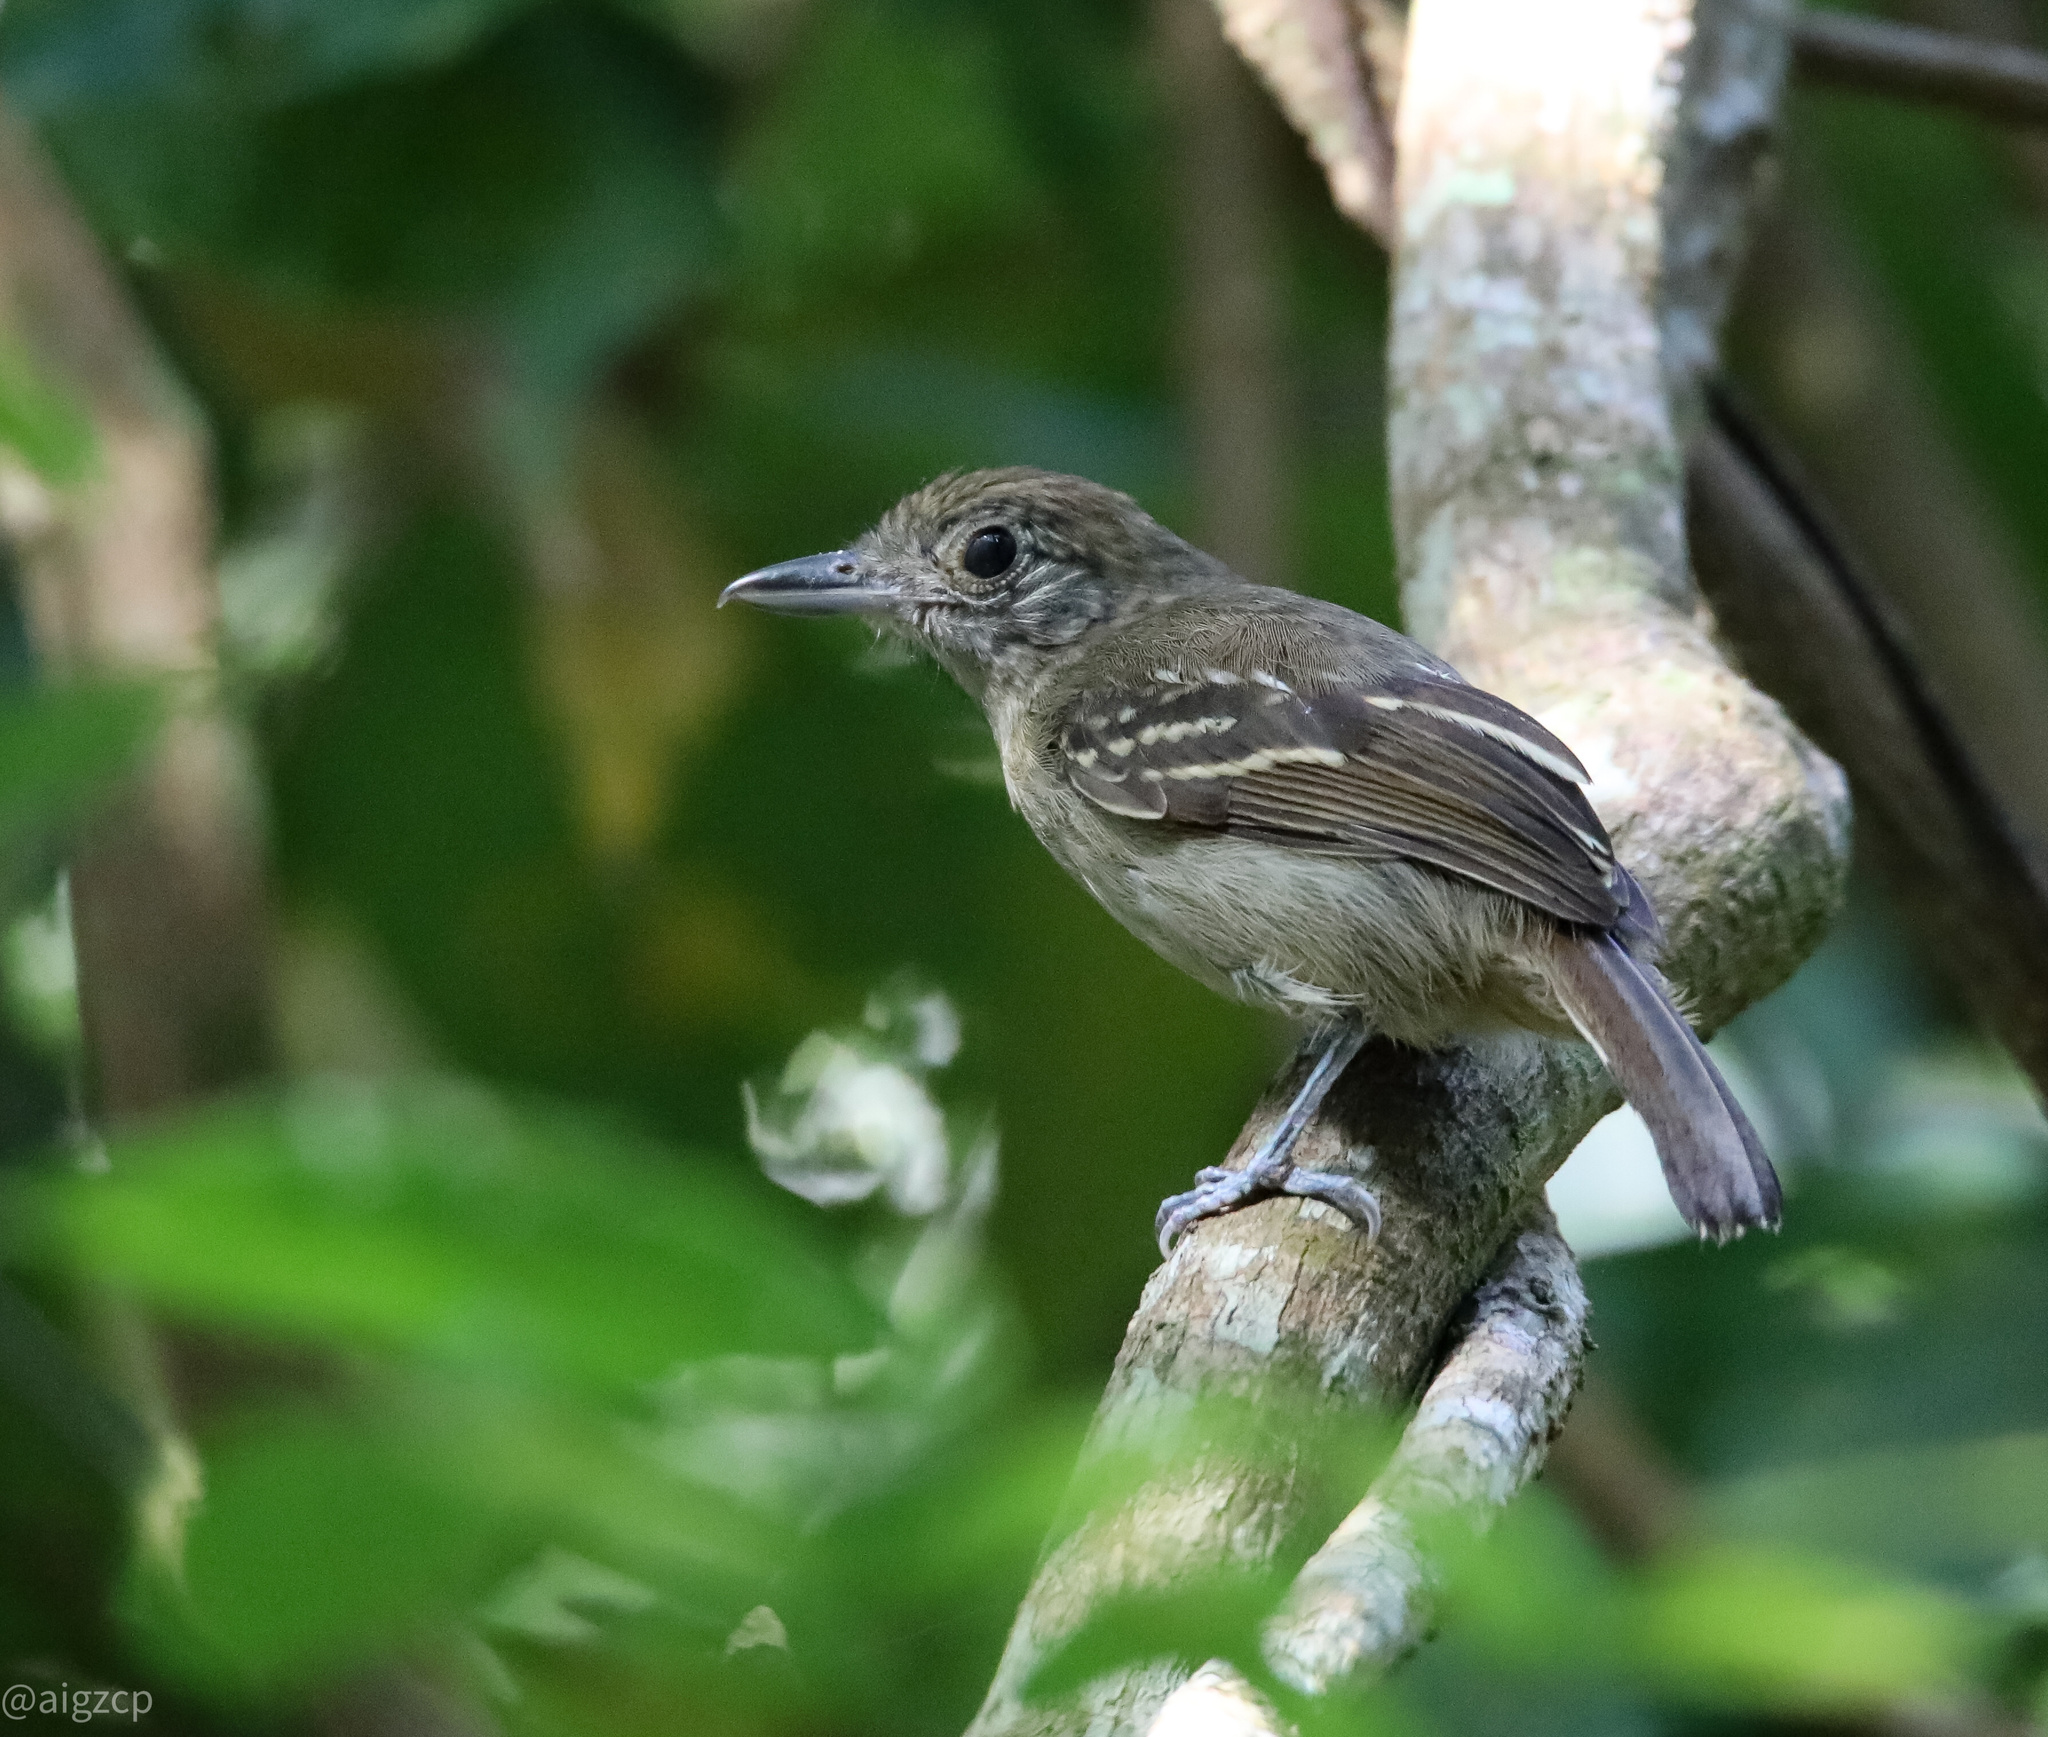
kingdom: Animalia
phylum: Chordata
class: Aves
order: Passeriformes
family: Thamnophilidae
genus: Thamnophilus
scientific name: Thamnophilus atrinucha
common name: Black-crowned antshrike
